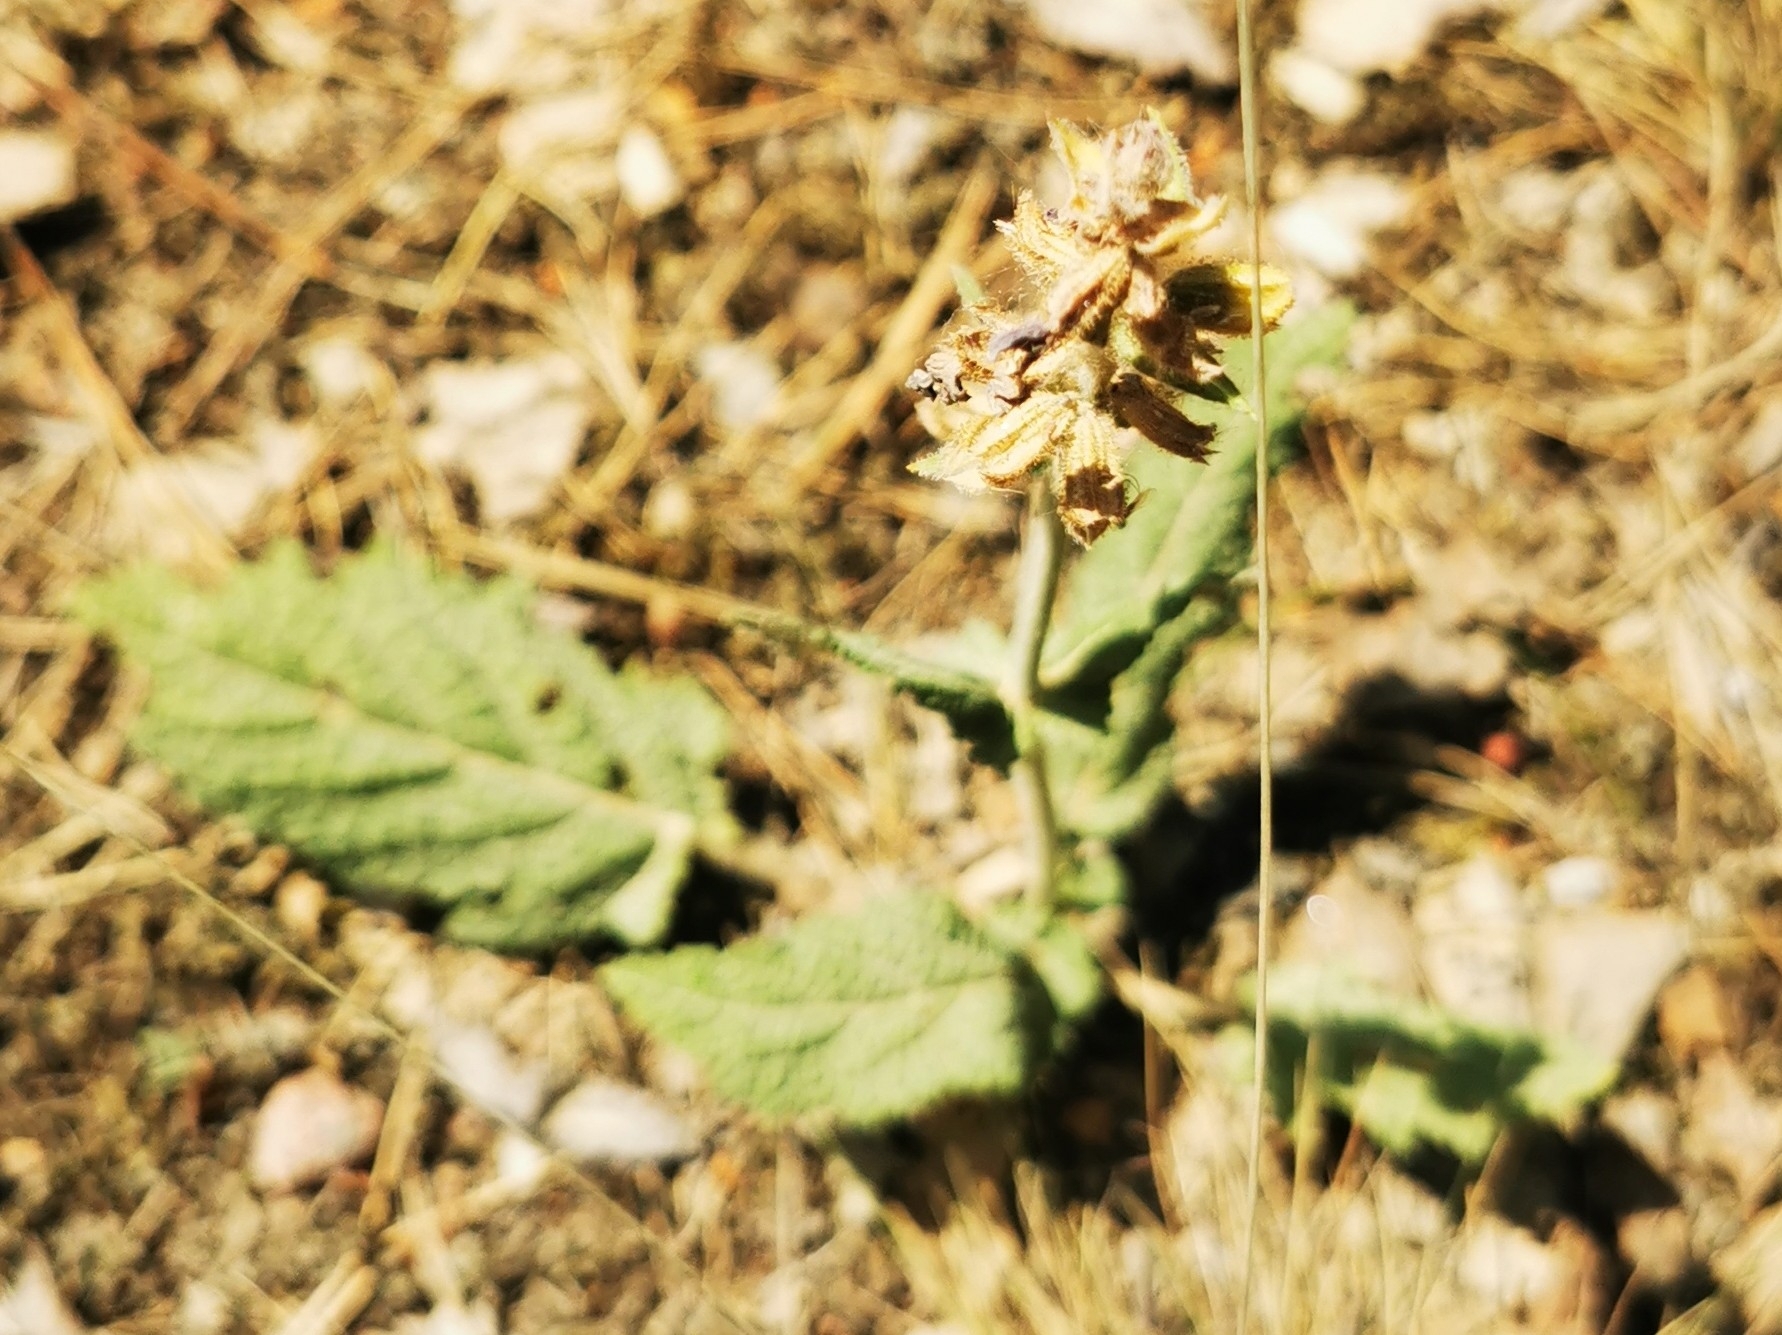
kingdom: Plantae
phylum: Tracheophyta
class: Magnoliopsida
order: Lamiales
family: Lamiaceae
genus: Salvia
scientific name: Salvia pratensis
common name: Meadow sage
